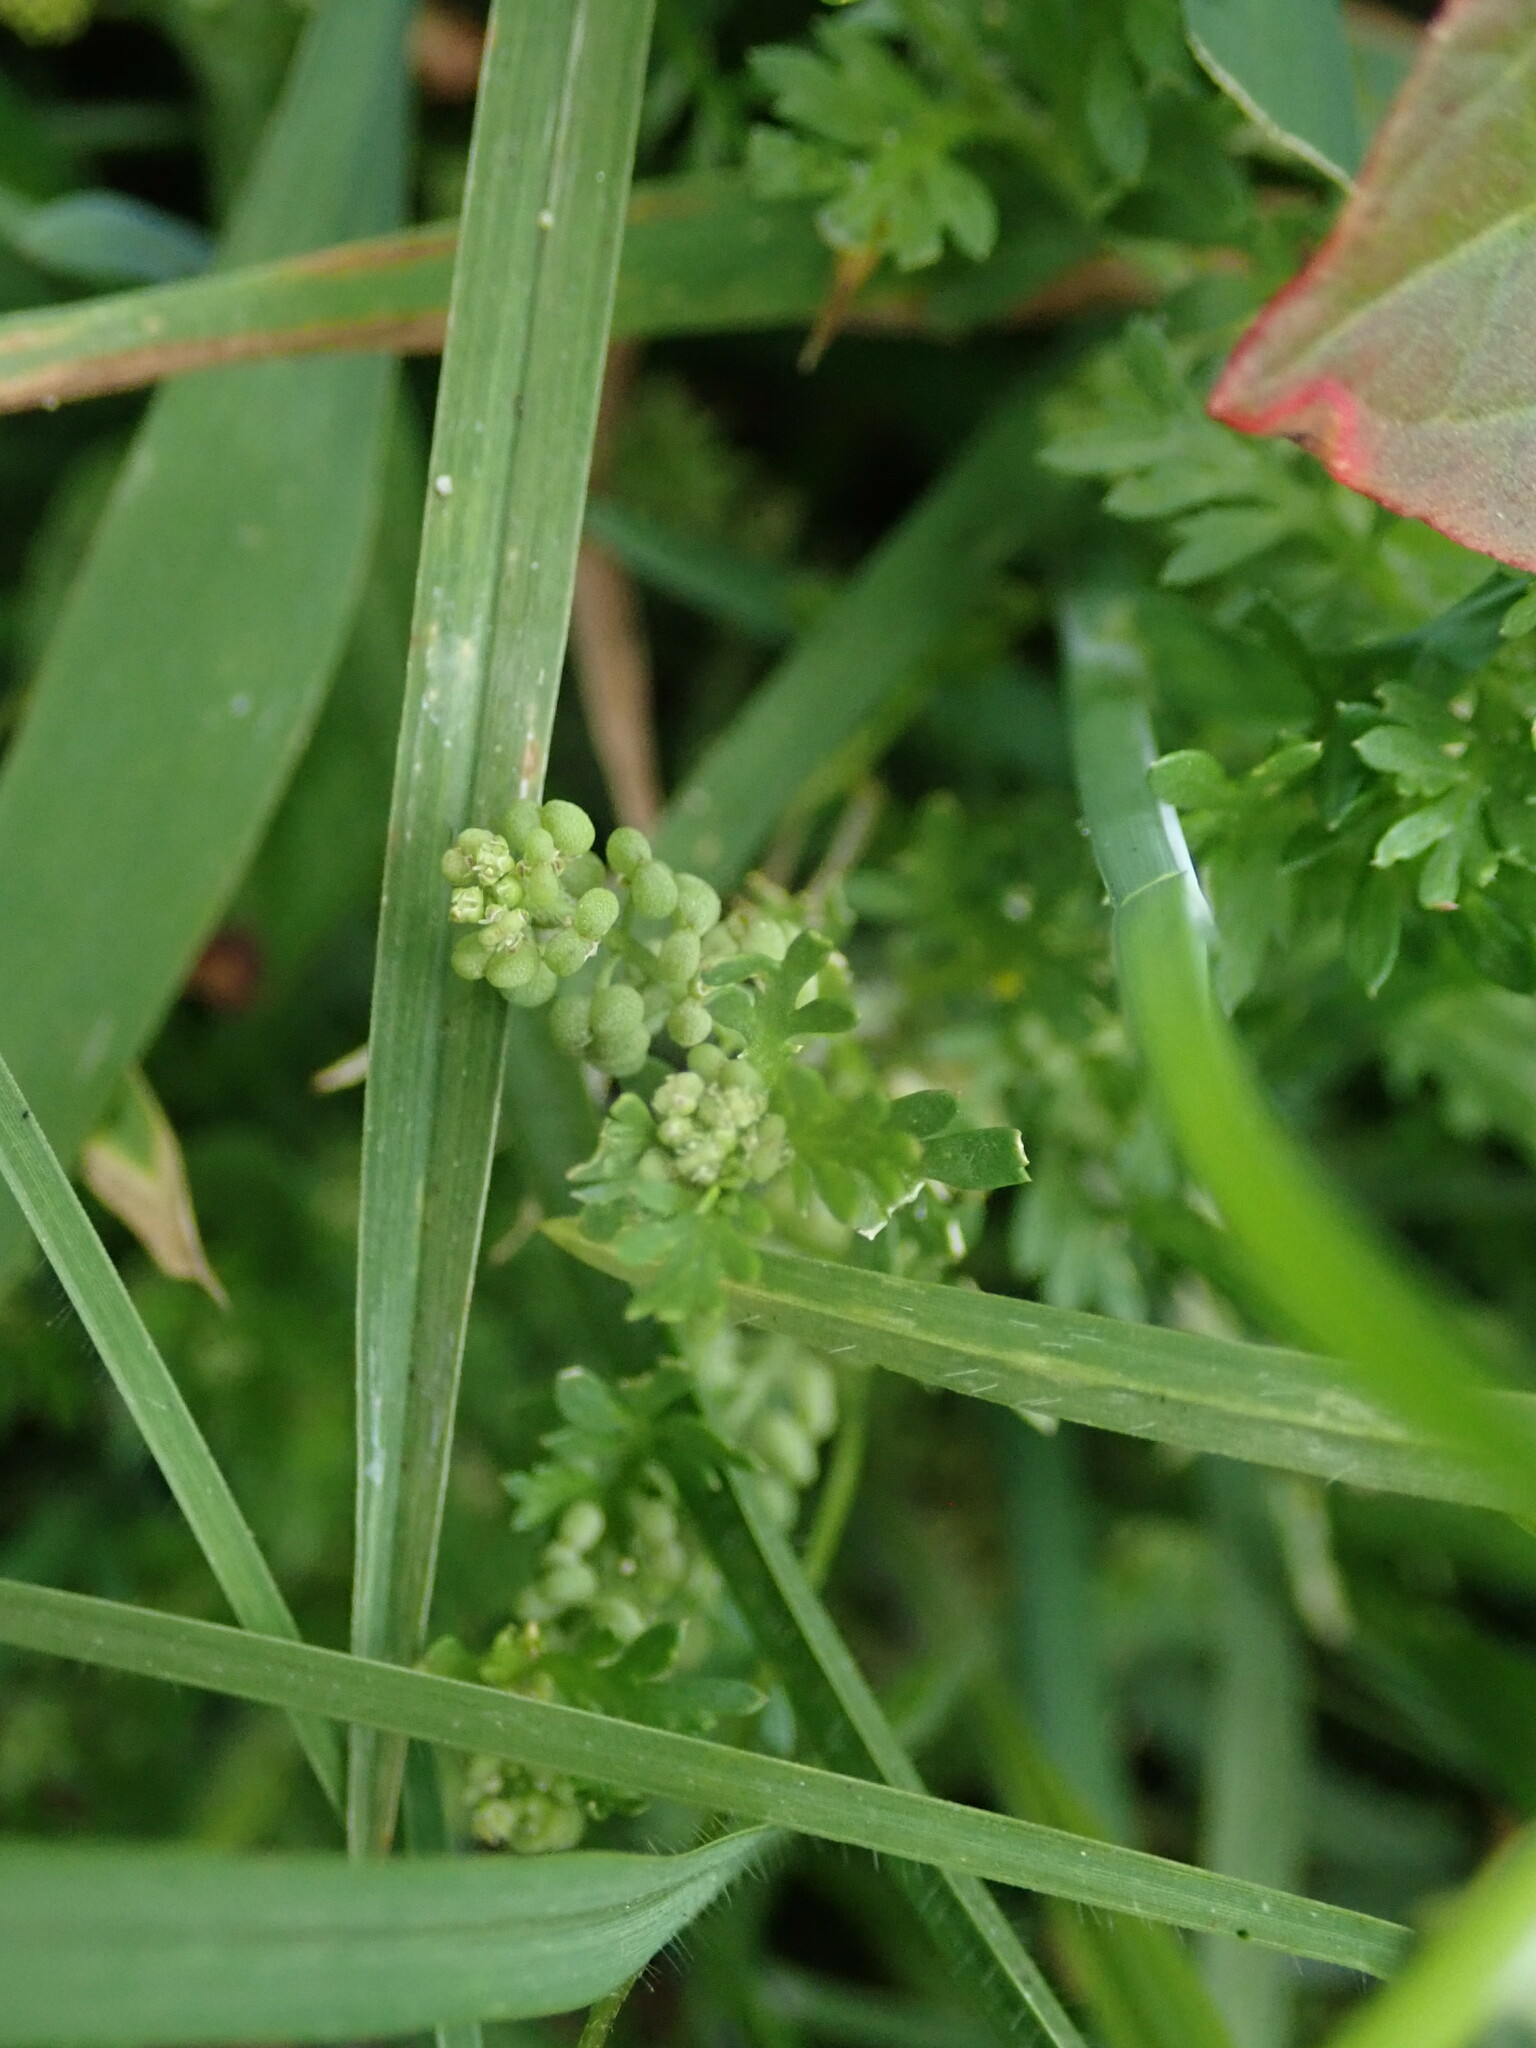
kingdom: Plantae
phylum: Tracheophyta
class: Magnoliopsida
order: Brassicales
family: Brassicaceae
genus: Lepidium
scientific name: Lepidium didymum
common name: Lesser swinecress
